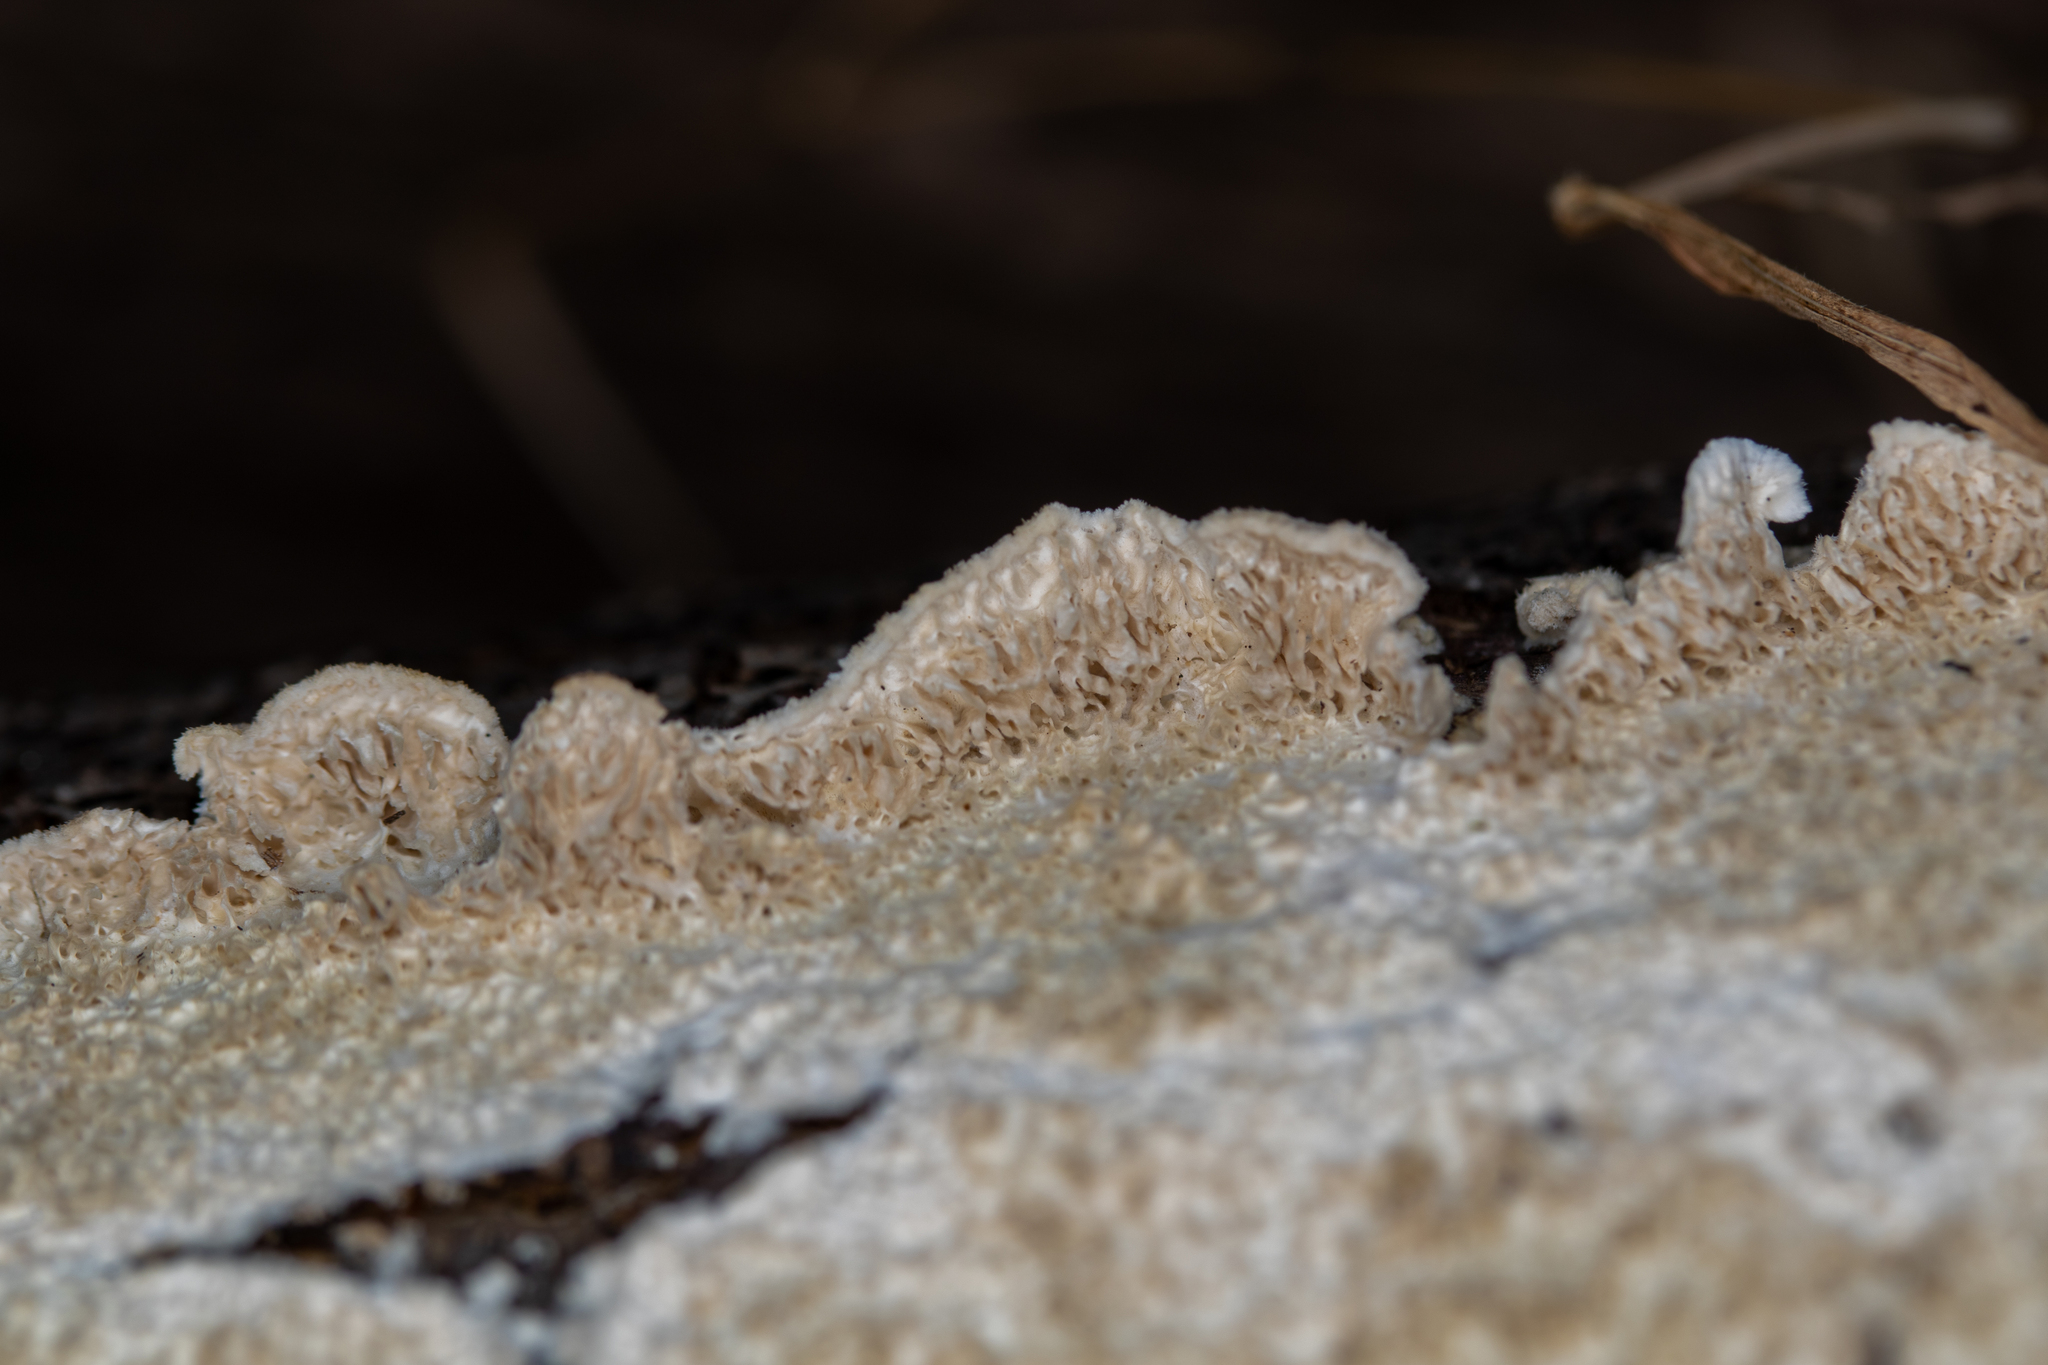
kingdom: Fungi
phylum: Basidiomycota
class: Agaricomycetes
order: Hymenochaetales
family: Schizoporaceae
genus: Schizopora
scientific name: Schizopora paradoxa
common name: Split porecrust
